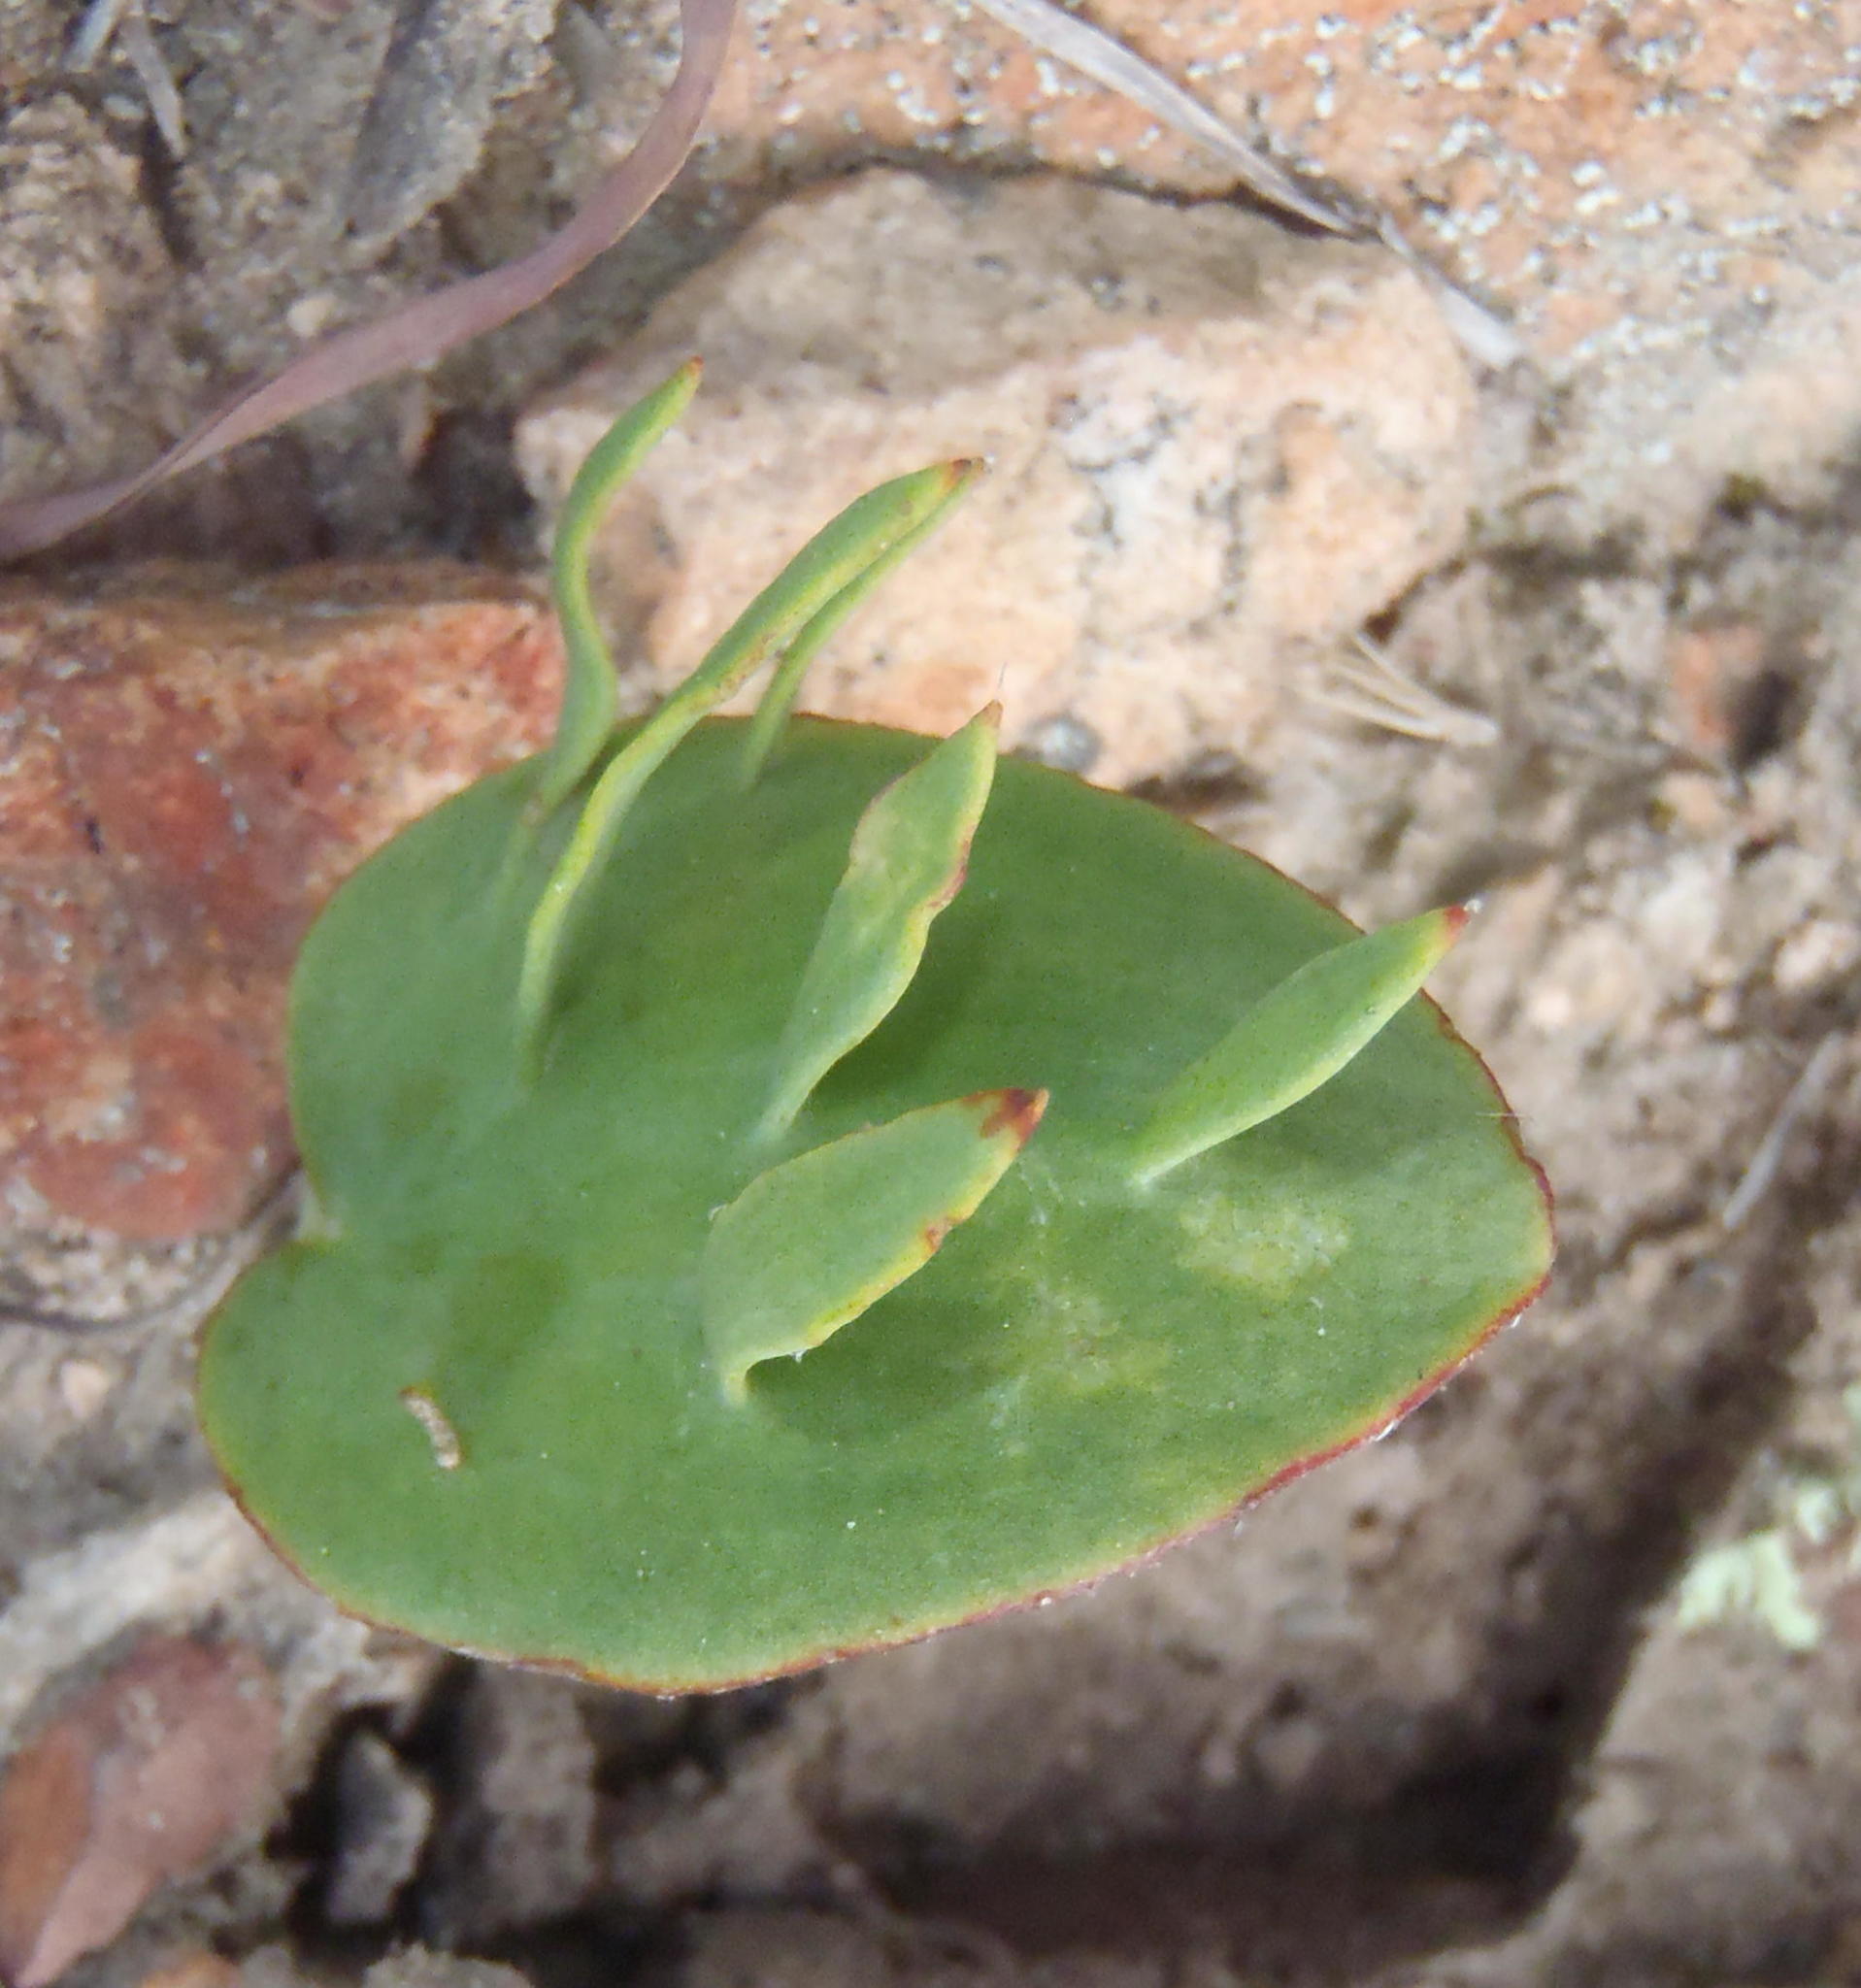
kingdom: Plantae
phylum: Tracheophyta
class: Liliopsida
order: Asparagales
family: Asparagaceae
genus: Eriospermum
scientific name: Eriospermum alcicorne
